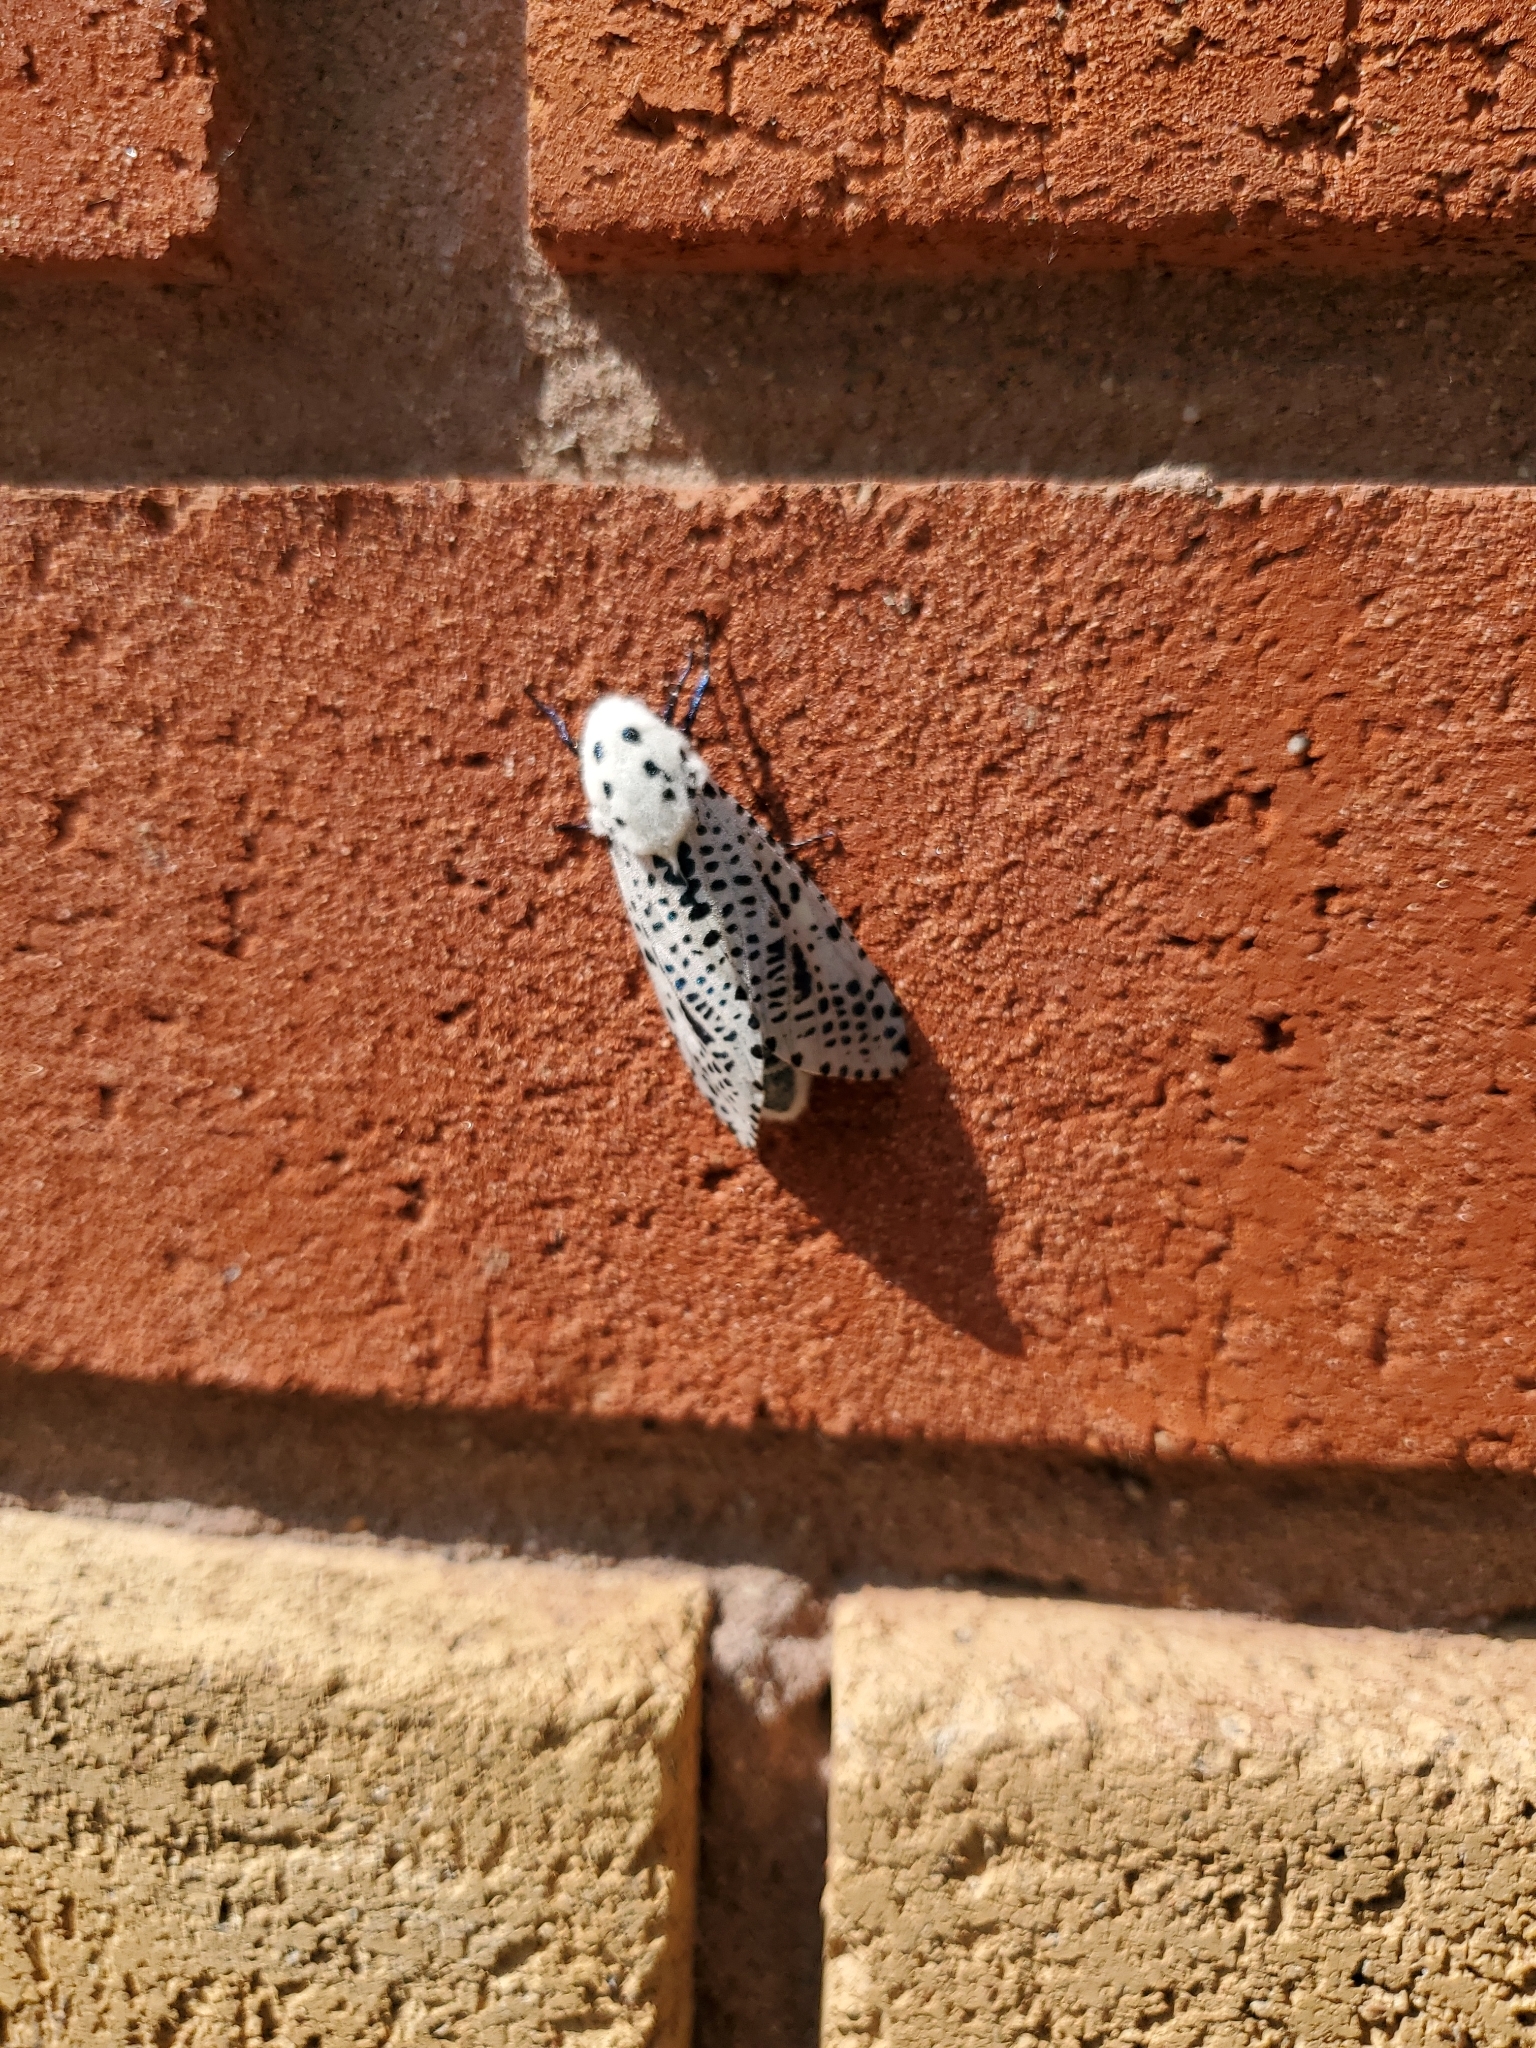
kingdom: Animalia
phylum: Arthropoda
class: Insecta
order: Lepidoptera
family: Cossidae
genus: Zeuzera
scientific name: Zeuzera pyrina
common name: Leopard moth
